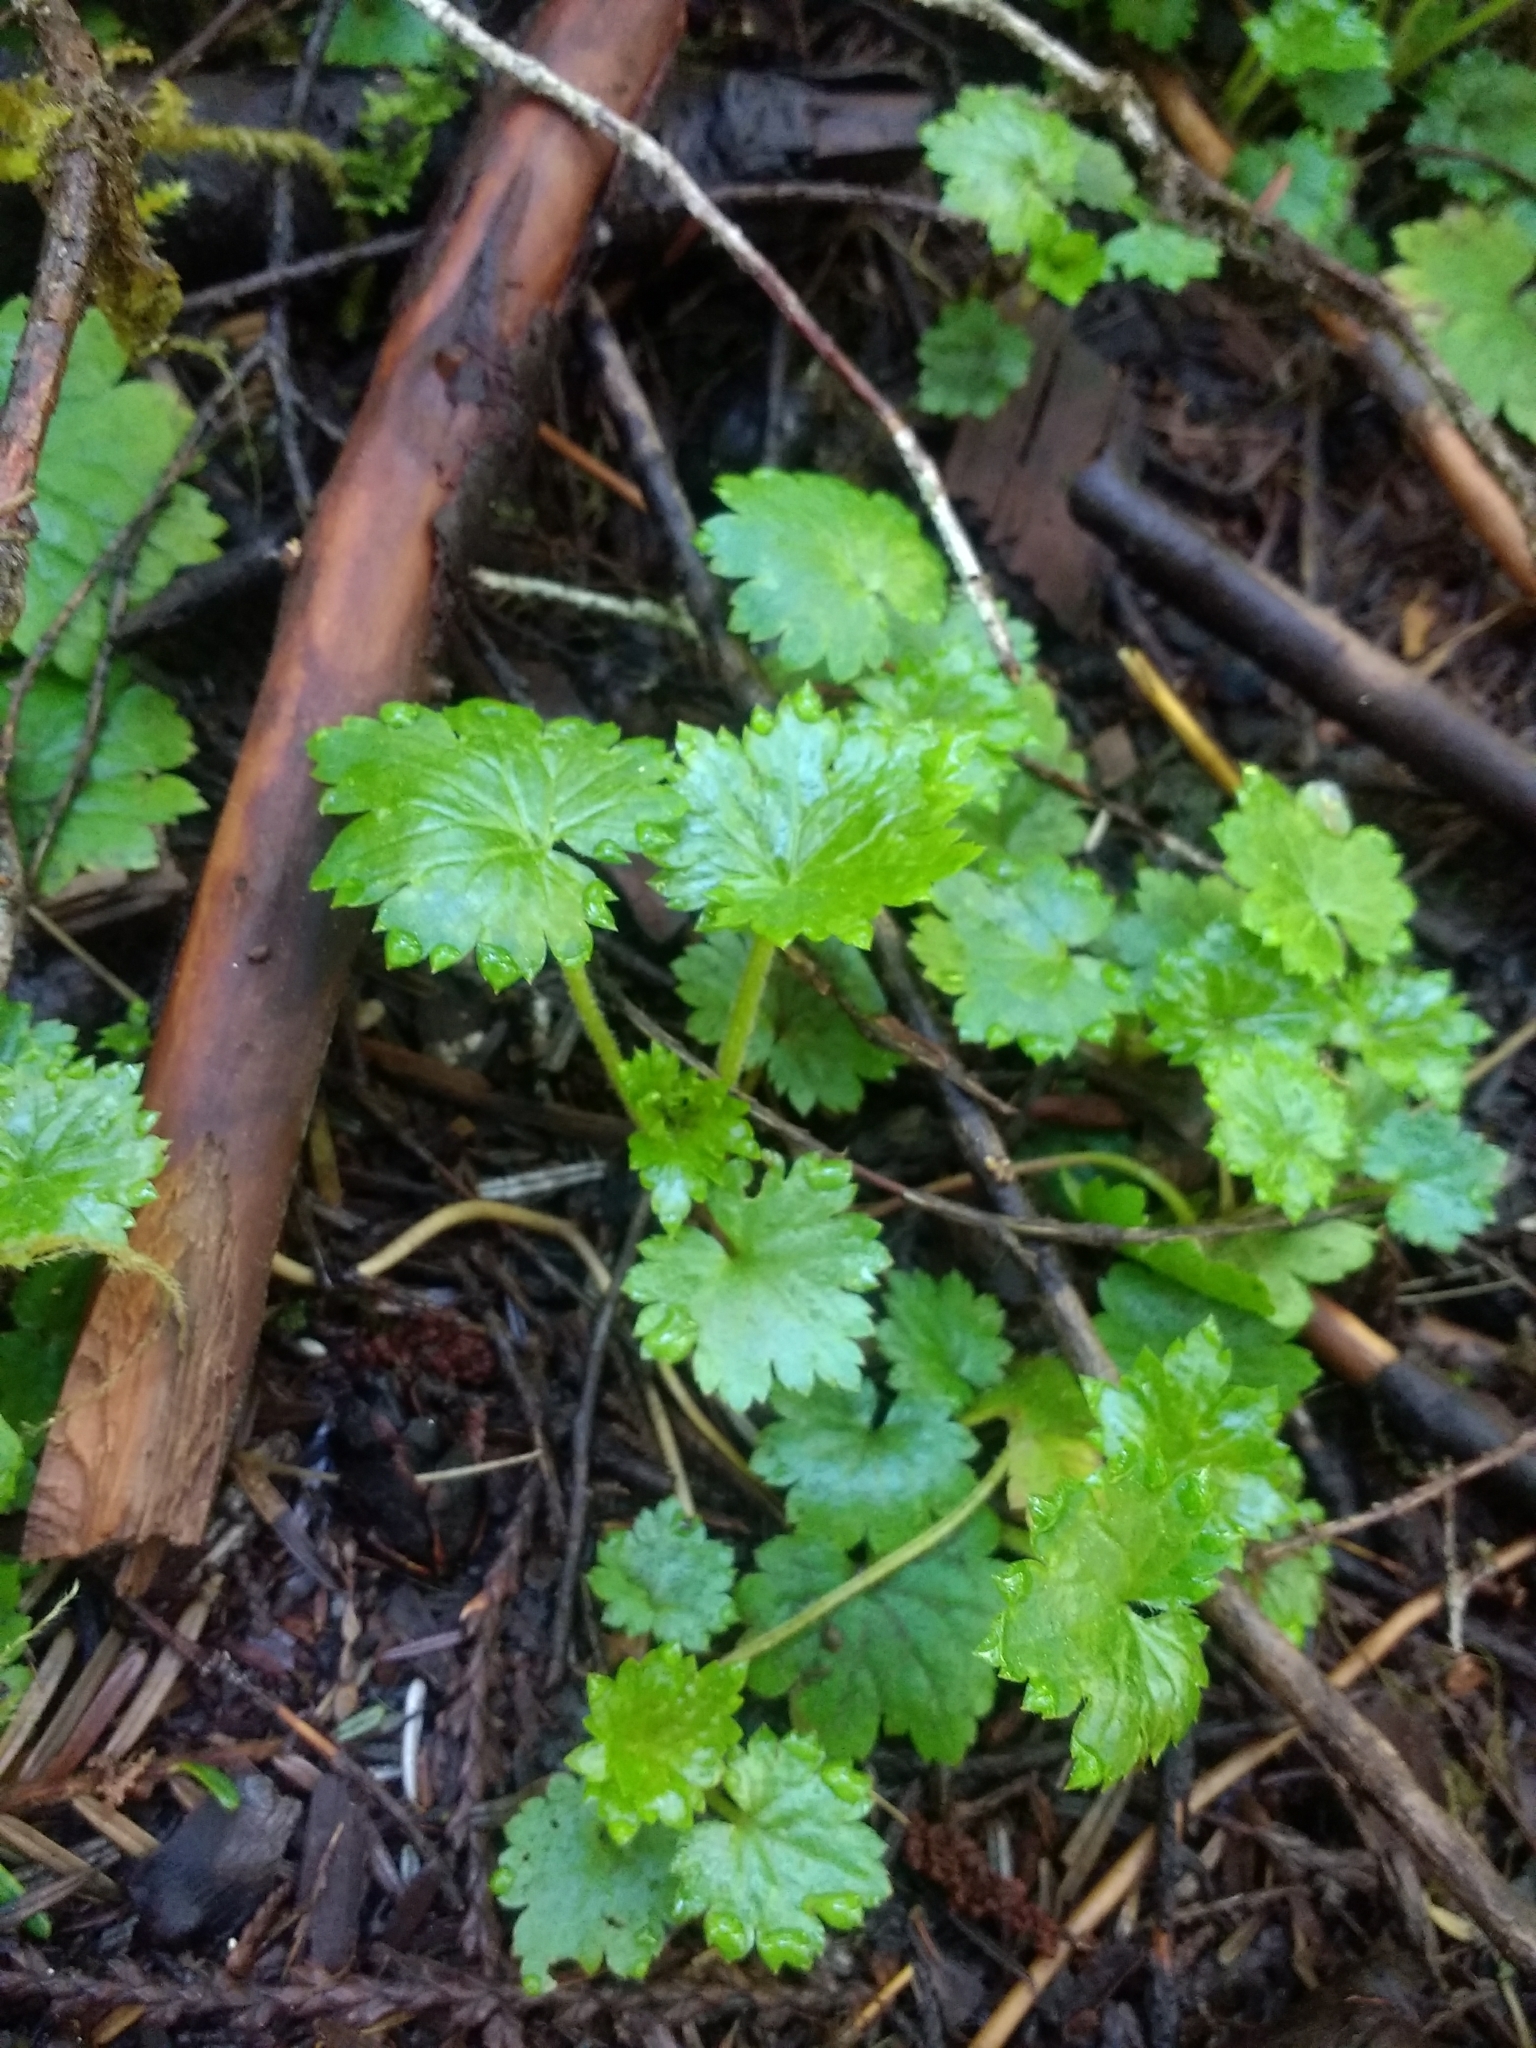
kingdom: Plantae
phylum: Tracheophyta
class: Magnoliopsida
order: Saxifragales
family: Saxifragaceae
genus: Boykinia
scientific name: Boykinia occidentalis
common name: Coast boykinia
